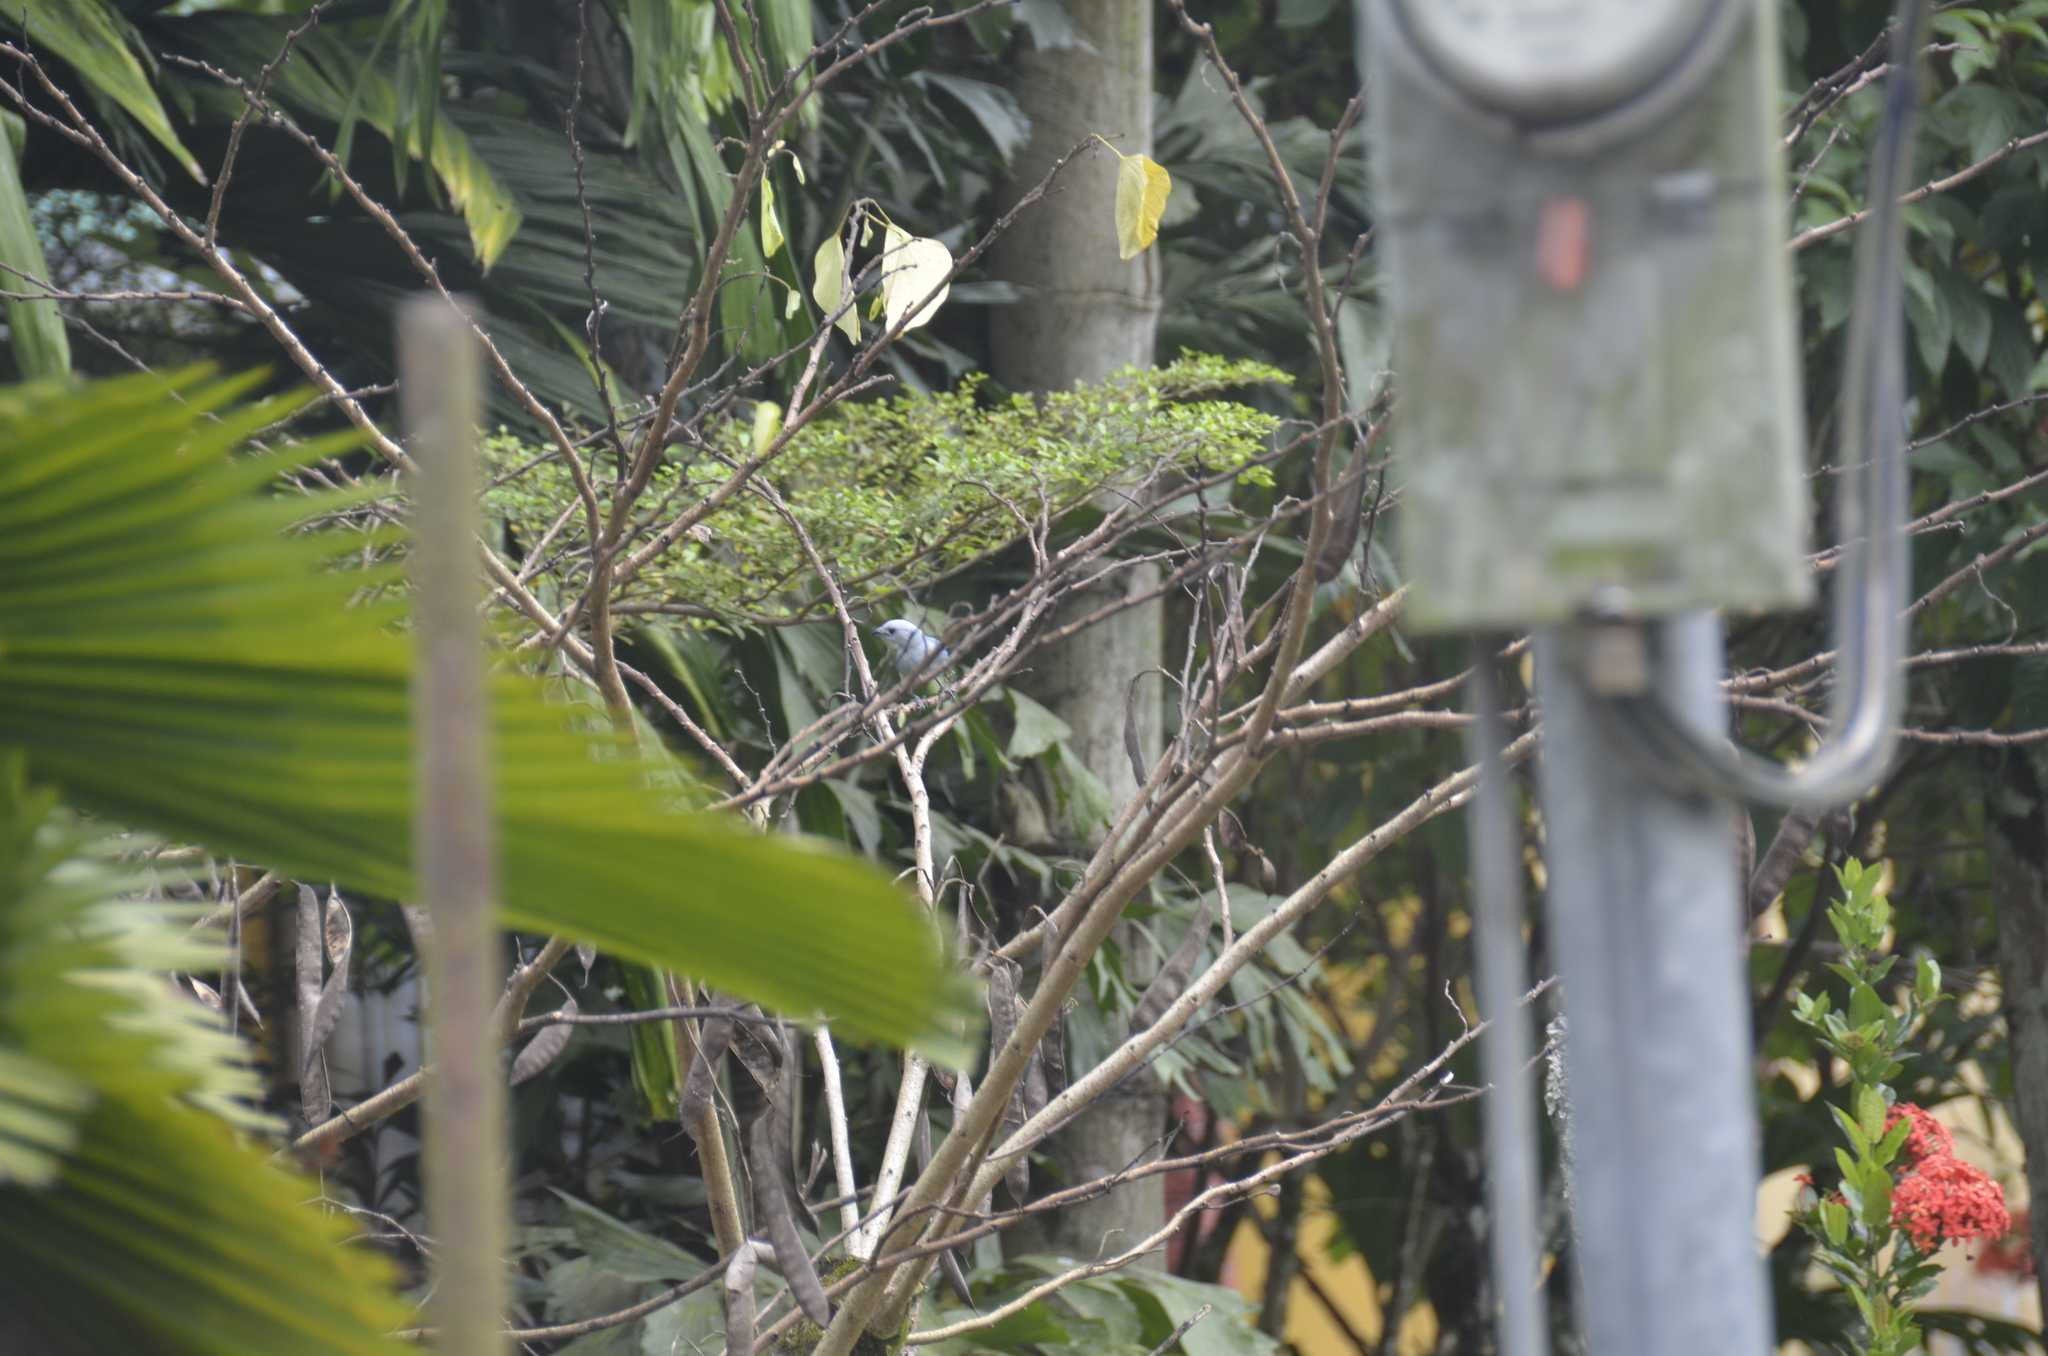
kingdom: Animalia
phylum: Chordata
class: Aves
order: Passeriformes
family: Thraupidae
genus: Thraupis
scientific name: Thraupis episcopus
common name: Blue-grey tanager
